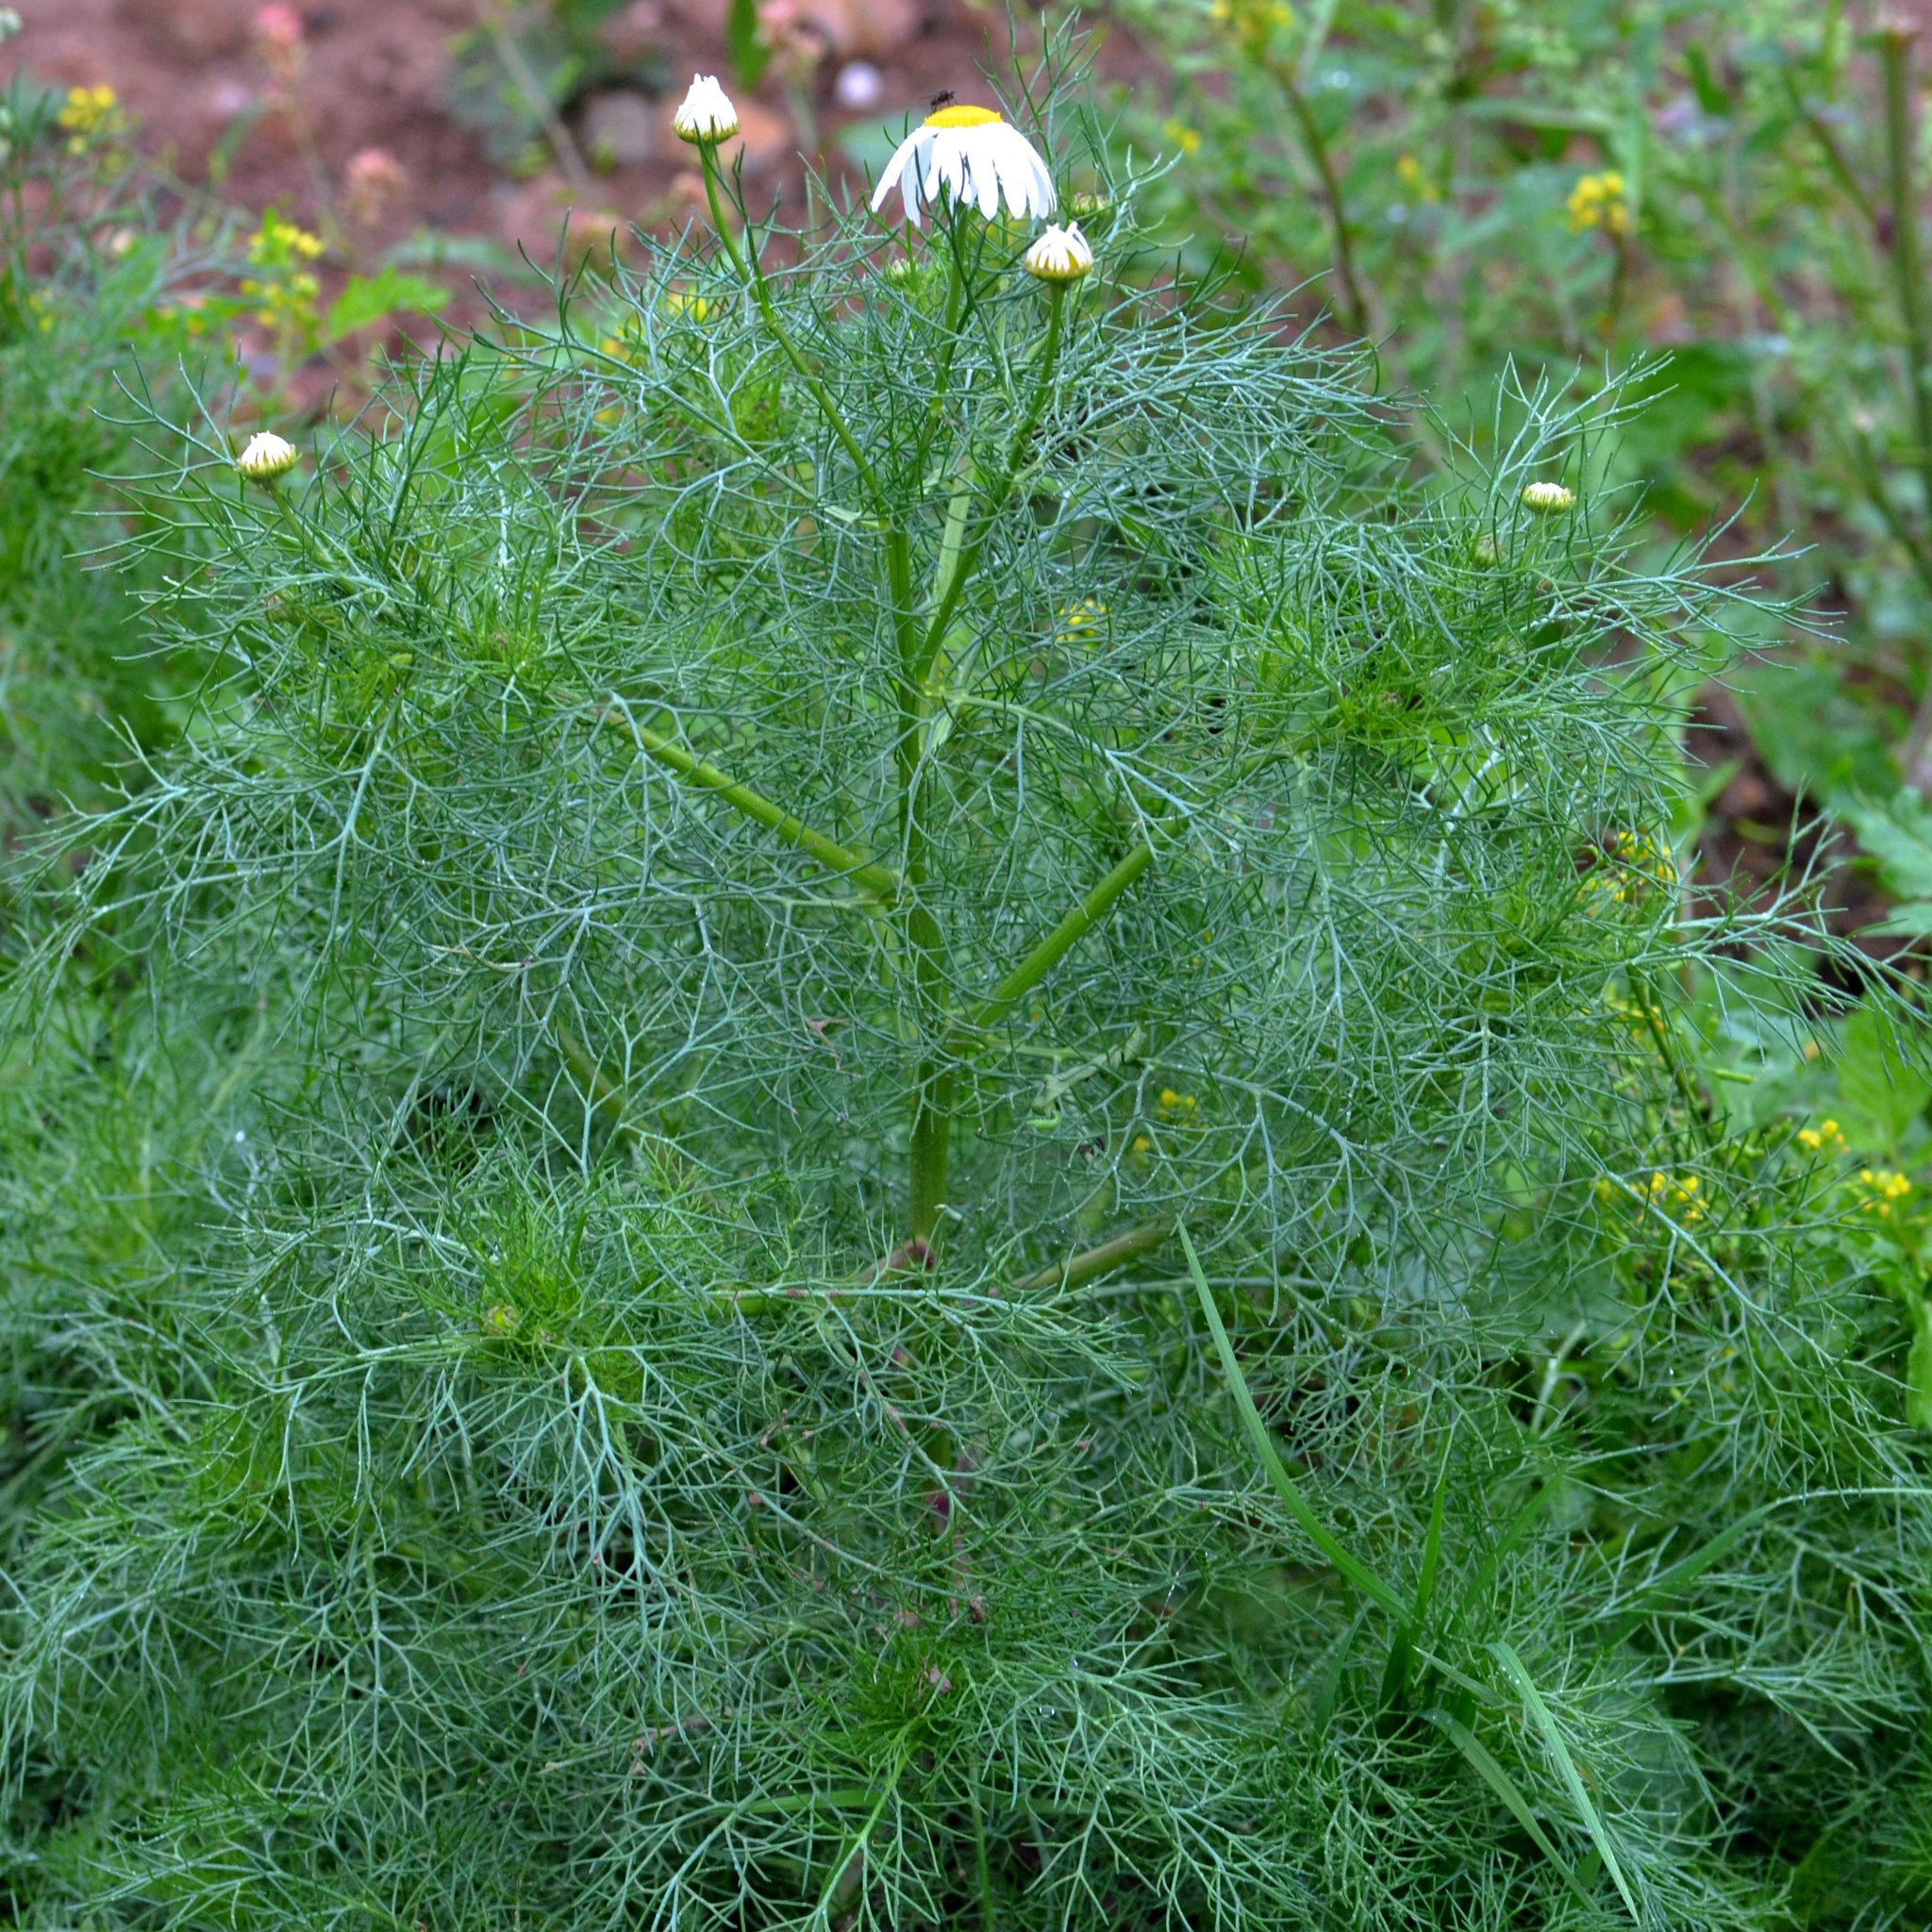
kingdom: Plantae
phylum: Tracheophyta
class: Magnoliopsida
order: Asterales
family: Asteraceae
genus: Tripleurospermum
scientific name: Tripleurospermum inodorum
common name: Scentless mayweed
